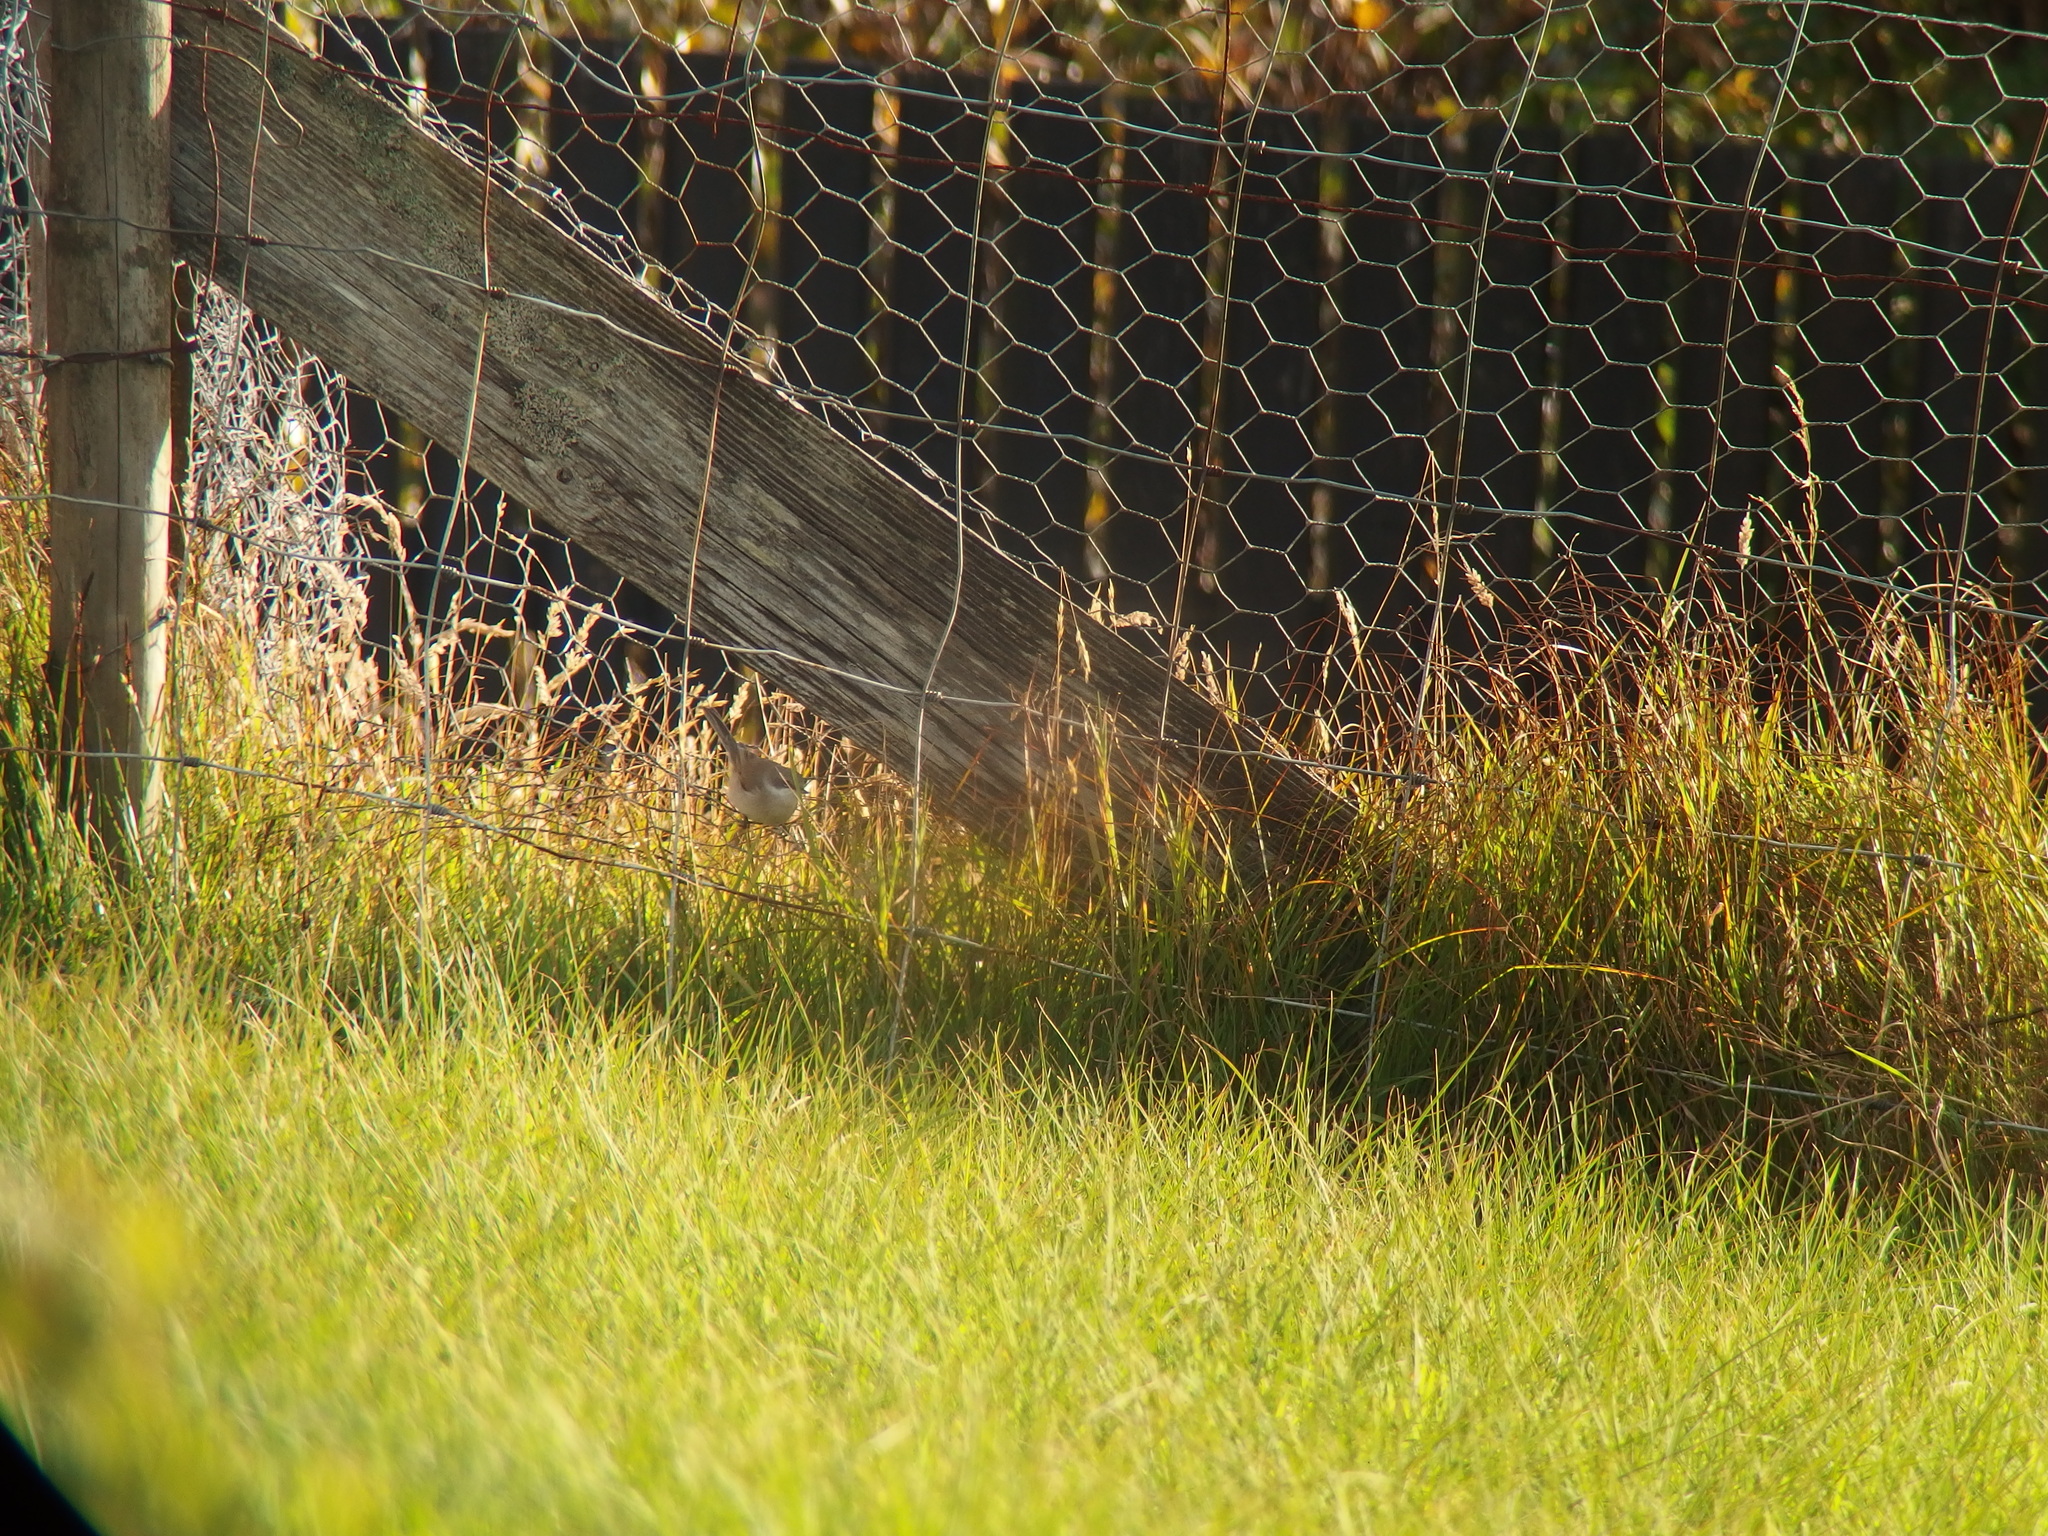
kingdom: Animalia
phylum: Chordata
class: Aves
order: Passeriformes
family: Sylviidae
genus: Sylvia
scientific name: Sylvia curruca
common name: Lesser whitethroat
